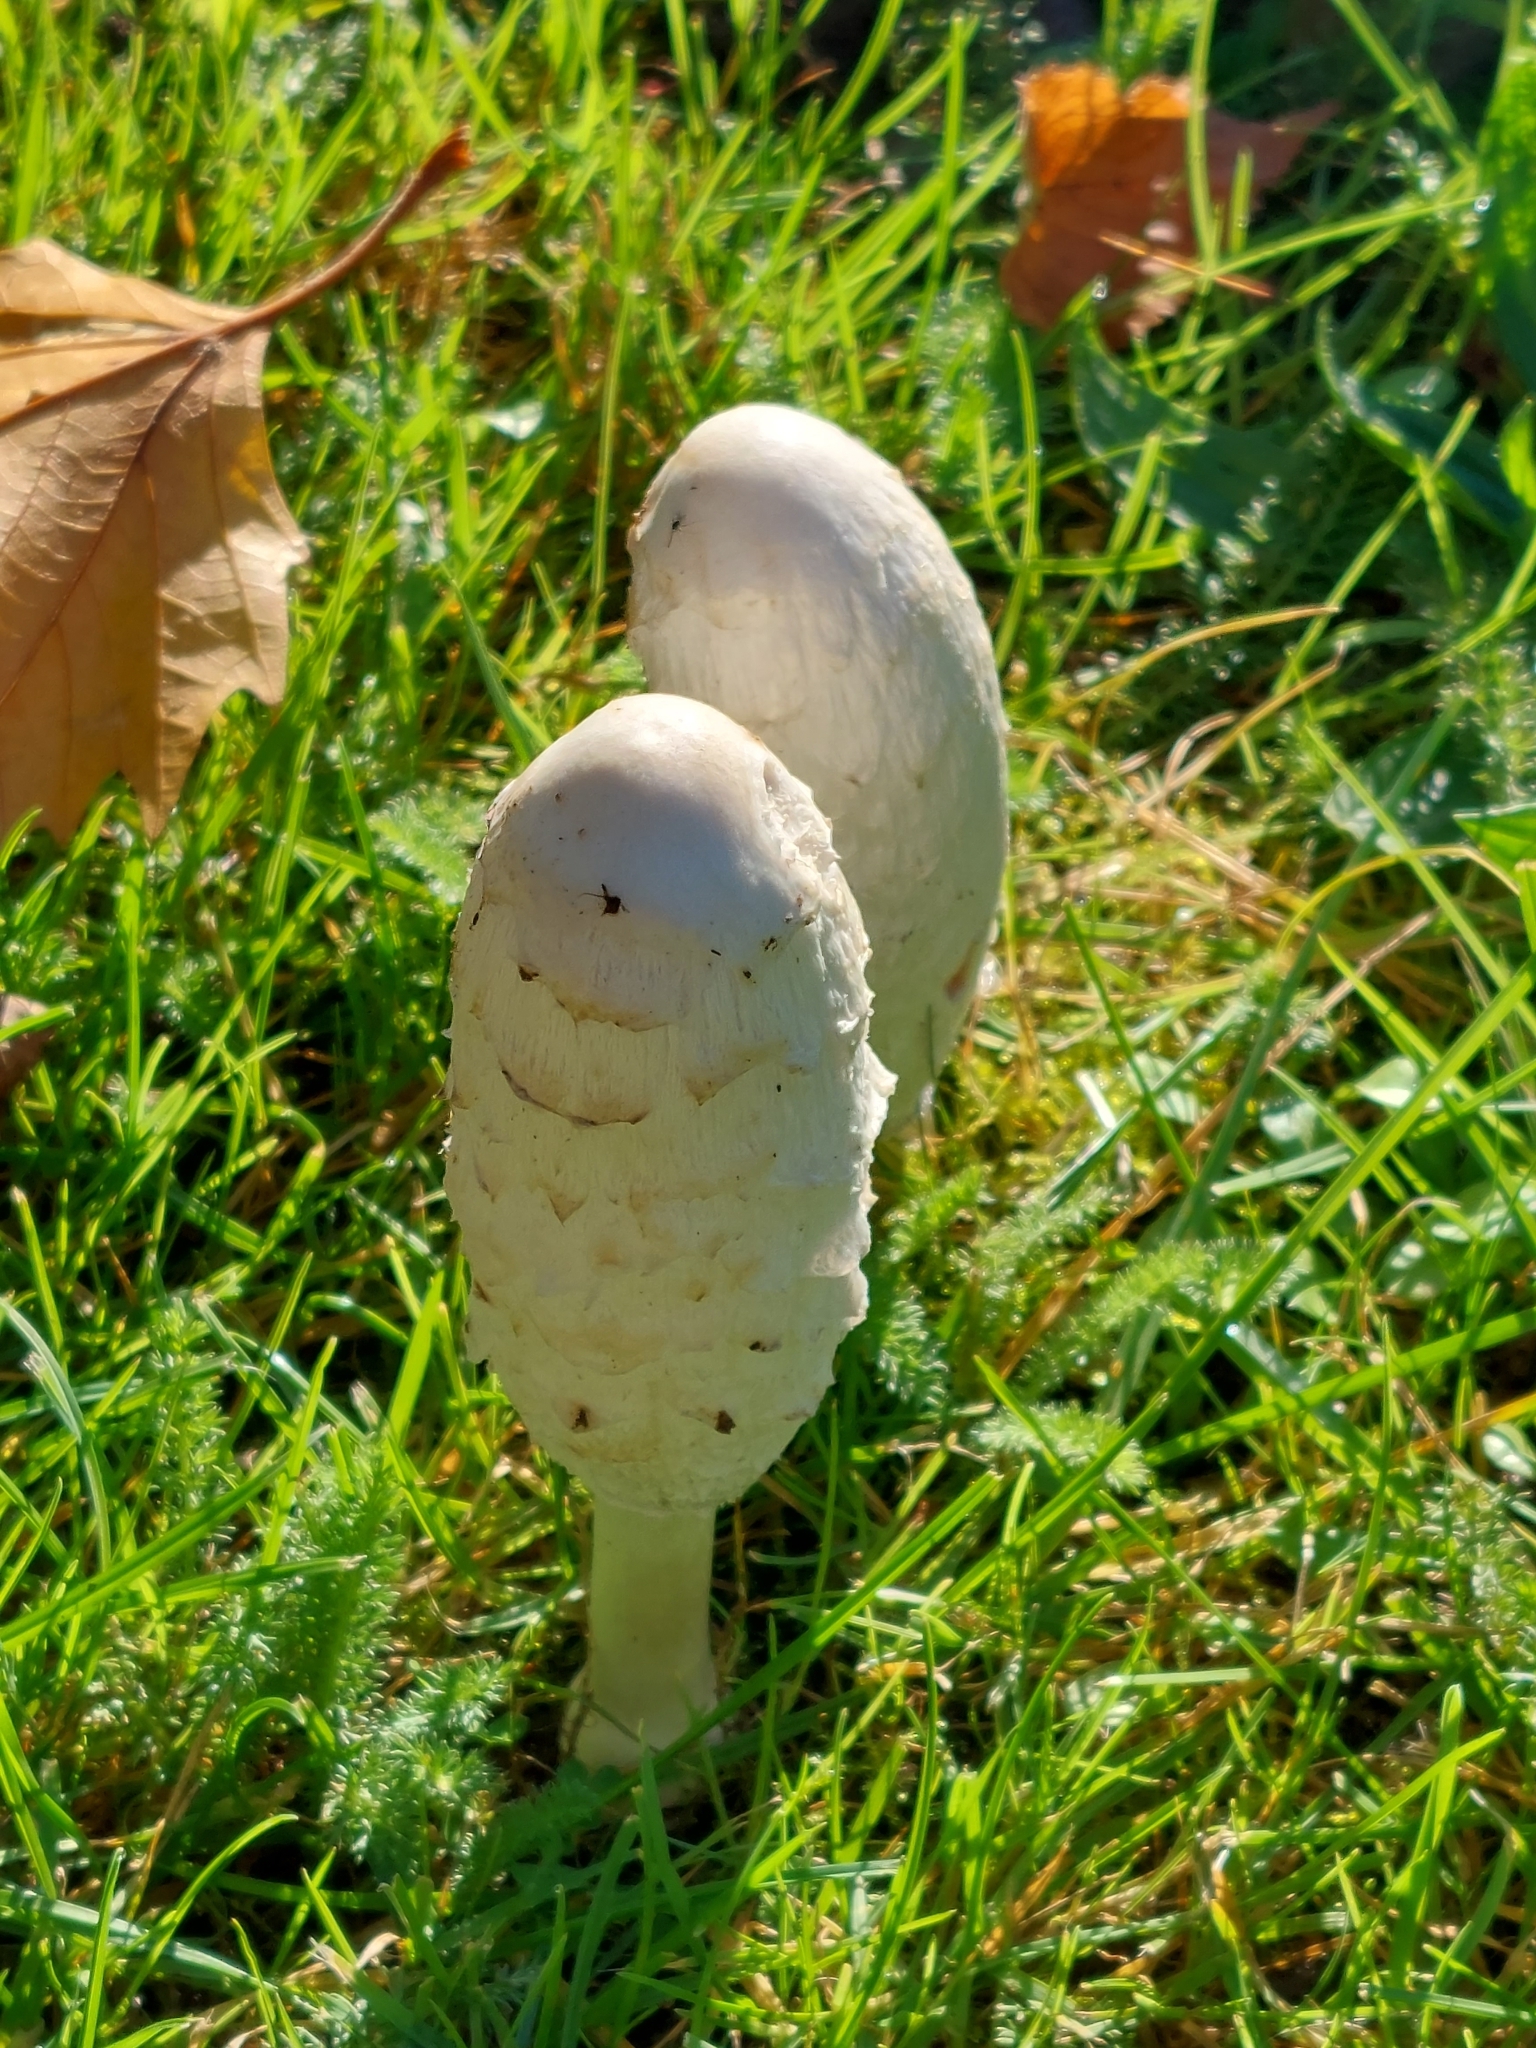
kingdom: Fungi
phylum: Basidiomycota
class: Agaricomycetes
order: Agaricales
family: Agaricaceae
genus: Coprinus
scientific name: Coprinus comatus
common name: Lawyer's wig
